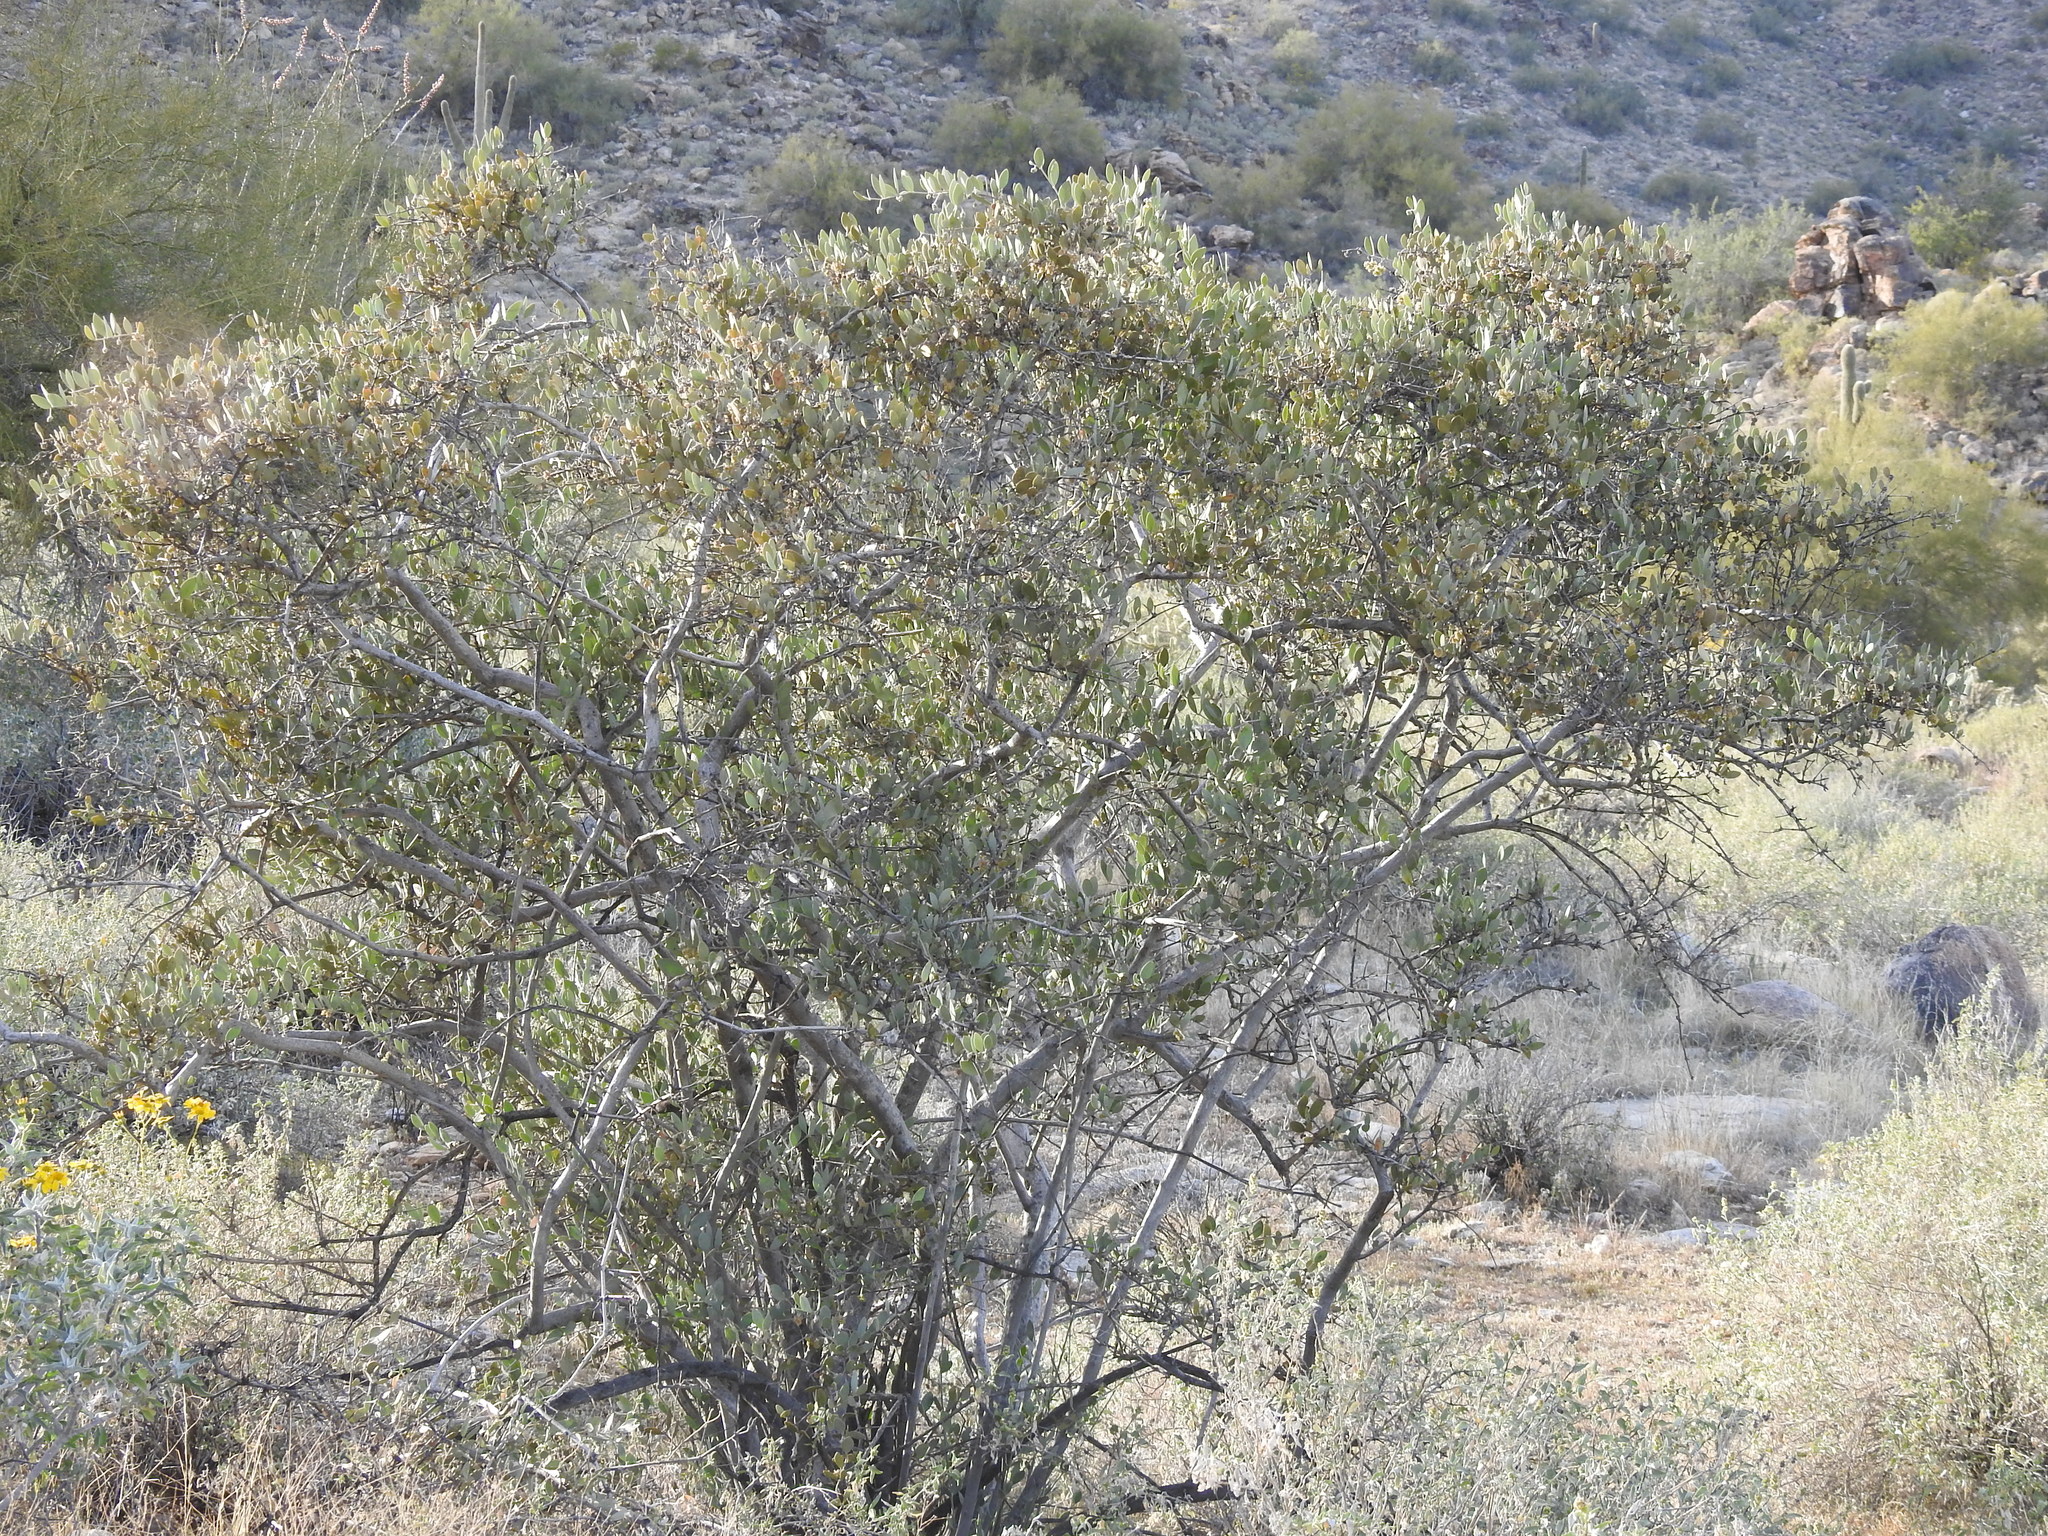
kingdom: Plantae
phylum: Tracheophyta
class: Magnoliopsida
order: Caryophyllales
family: Simmondsiaceae
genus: Simmondsia
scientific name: Simmondsia chinensis
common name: Jojoba
